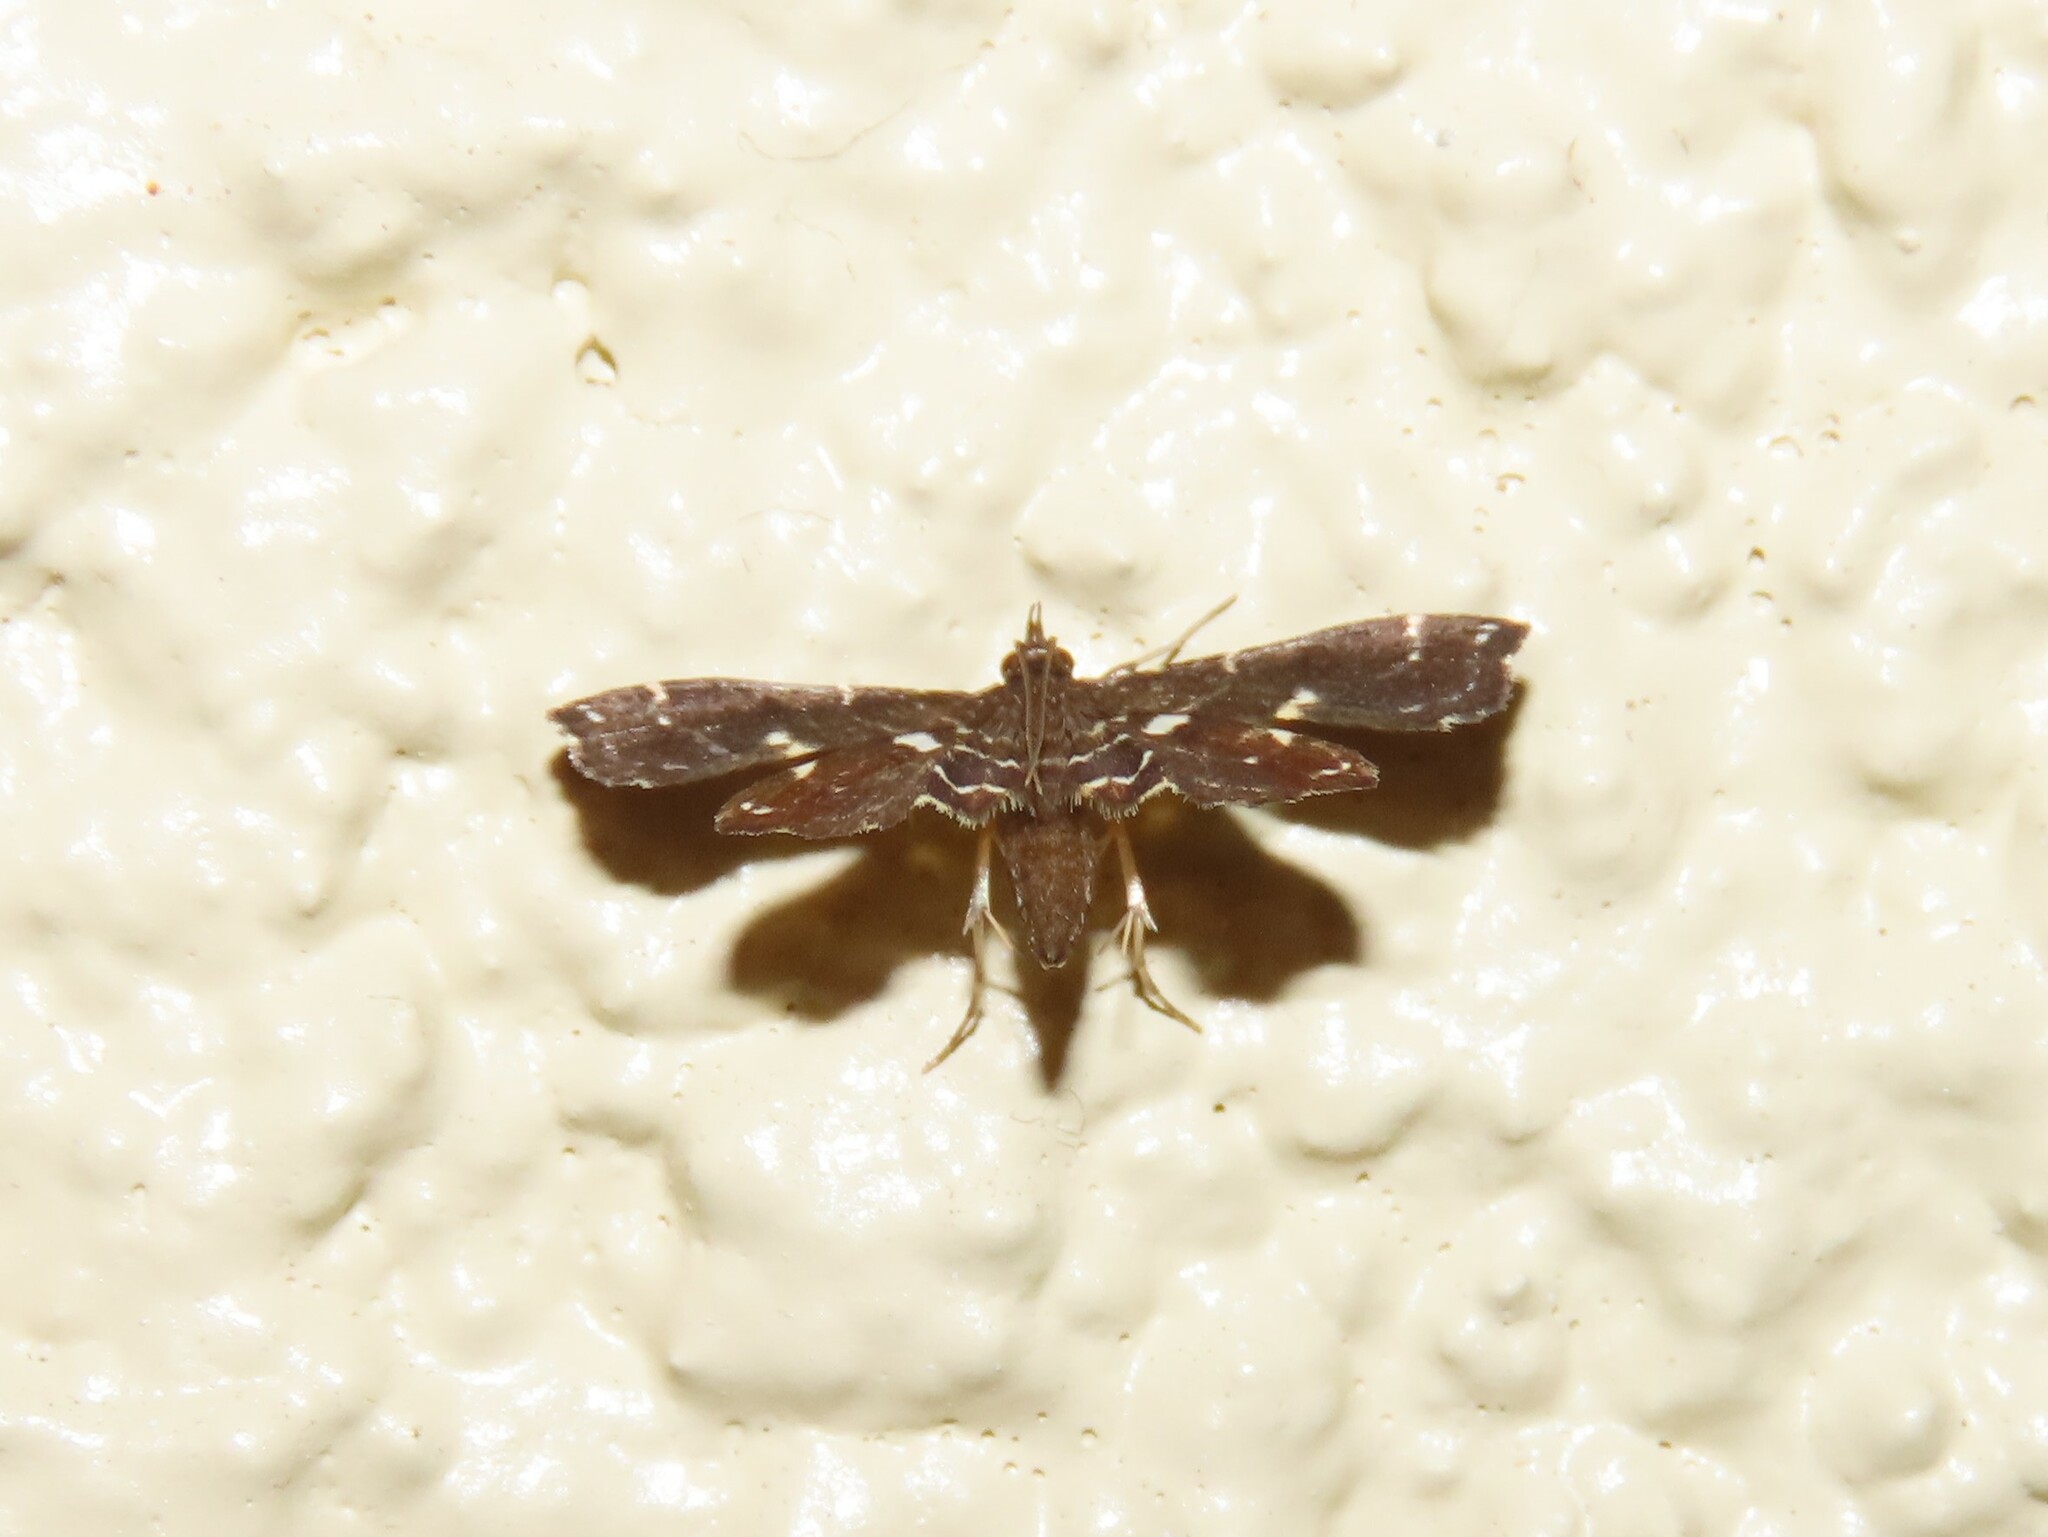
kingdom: Animalia
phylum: Arthropoda
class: Insecta
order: Lepidoptera
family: Pyralidae
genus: Undulambia
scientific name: Undulambia polystichalis
